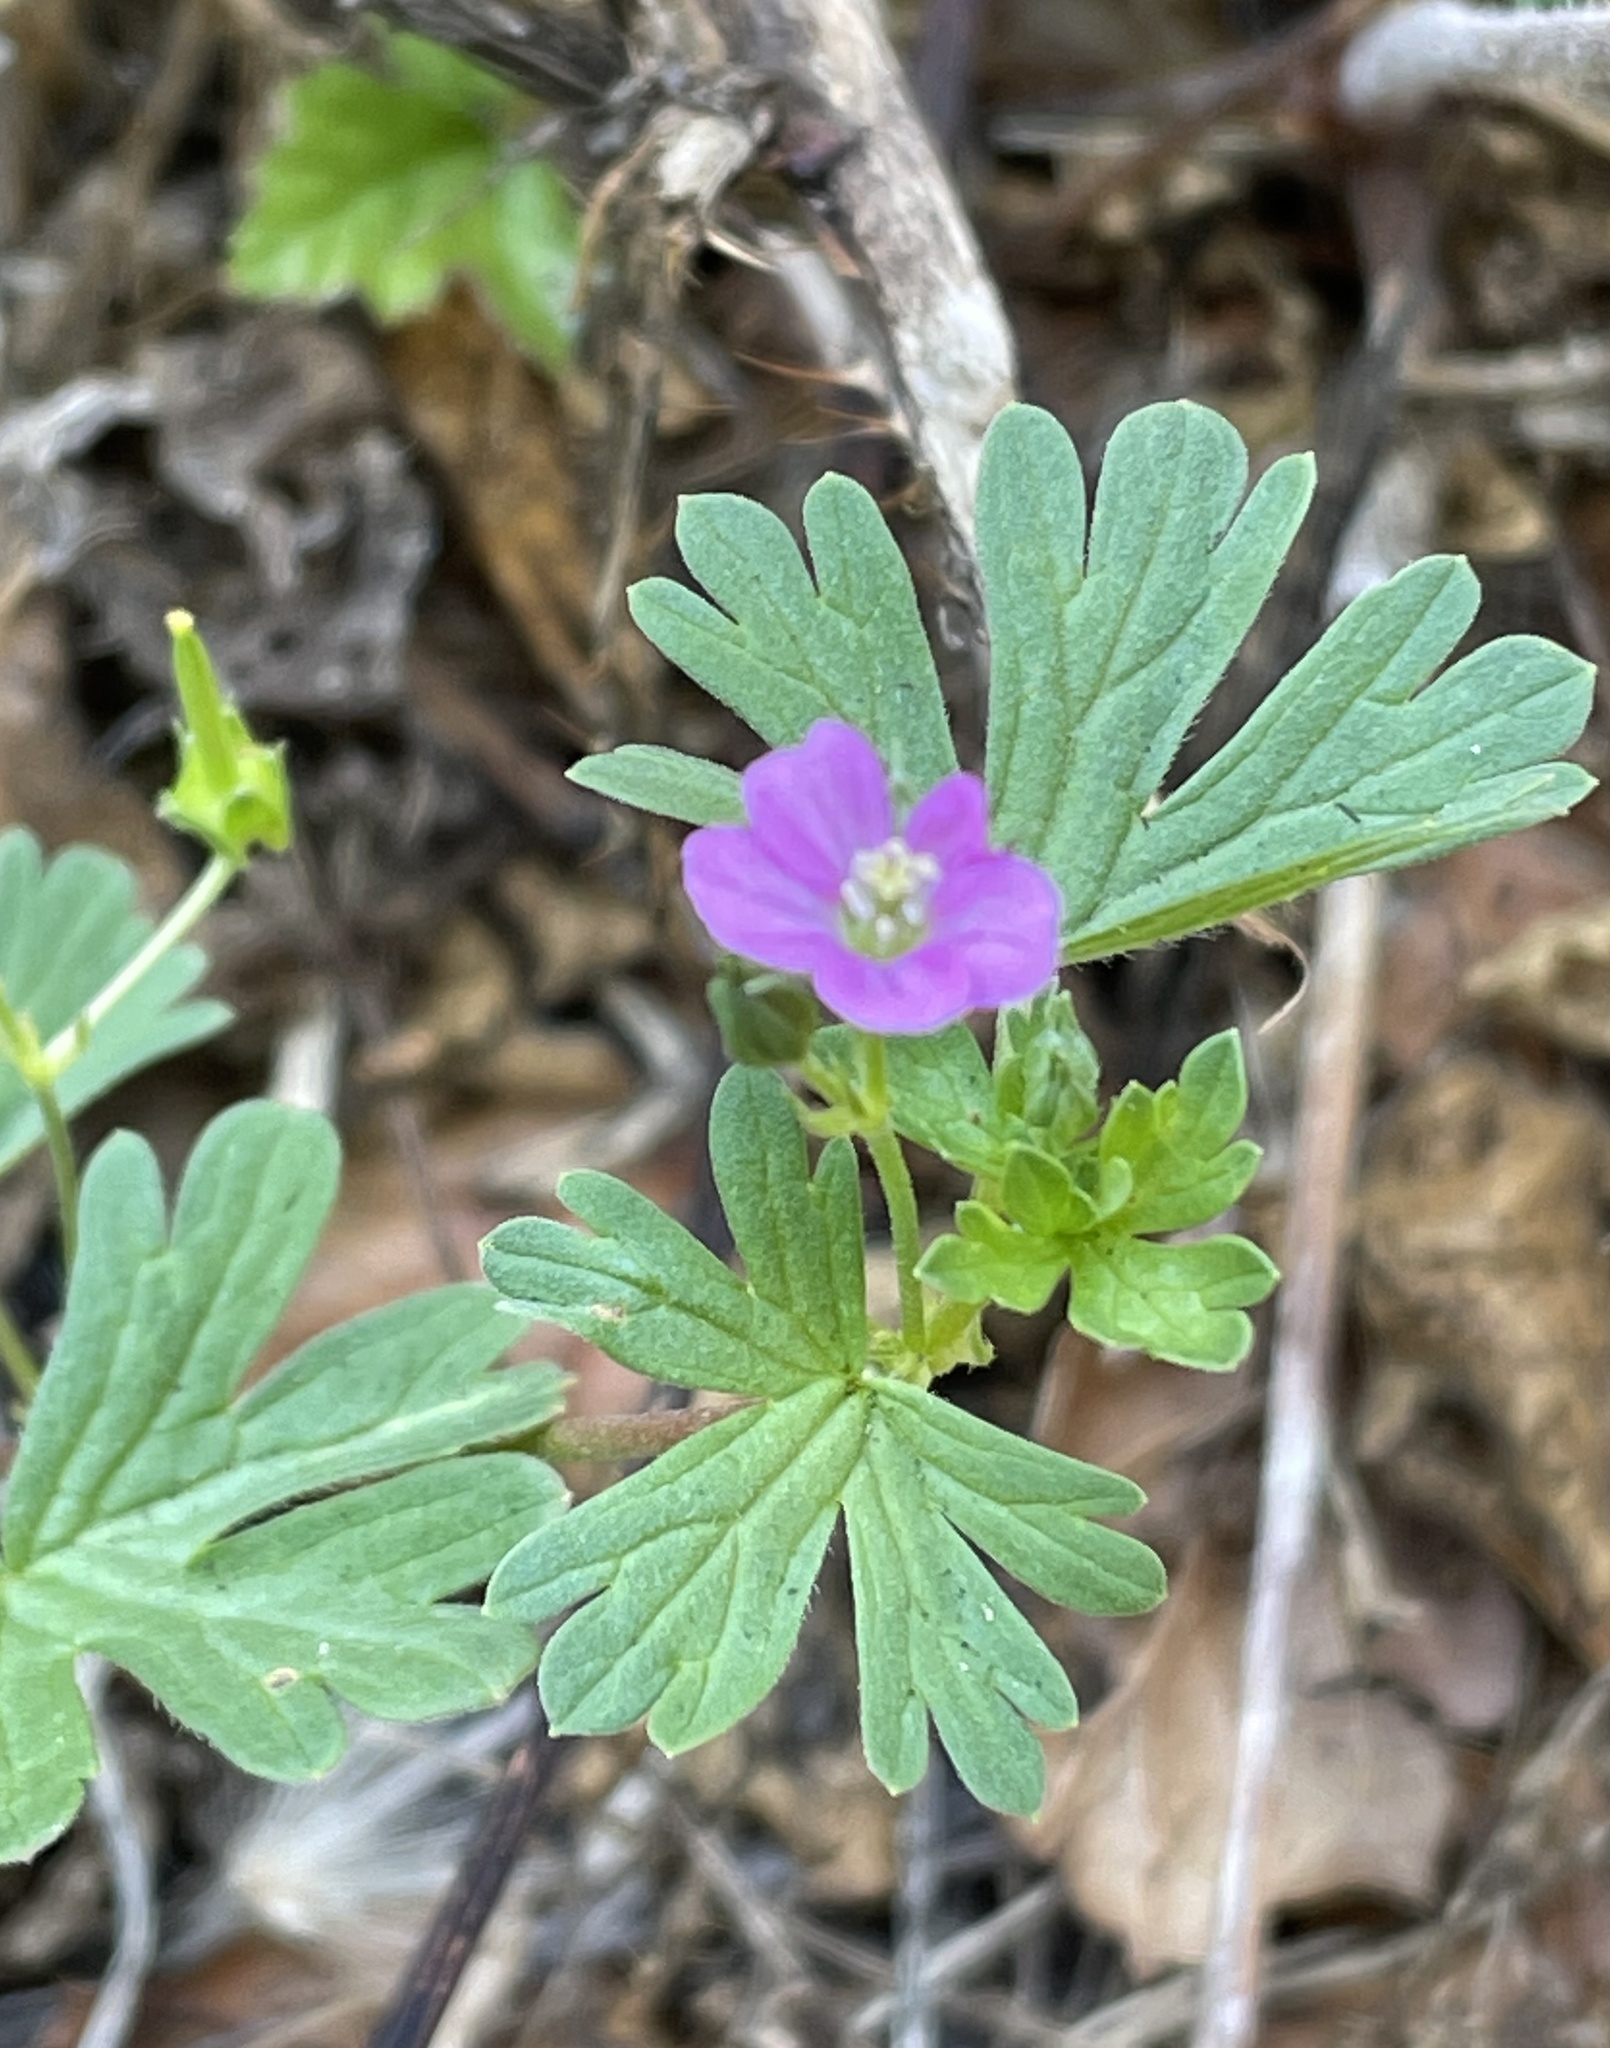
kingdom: Plantae
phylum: Tracheophyta
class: Magnoliopsida
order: Geraniales
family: Geraniaceae
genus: Geranium
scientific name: Geranium core-core
